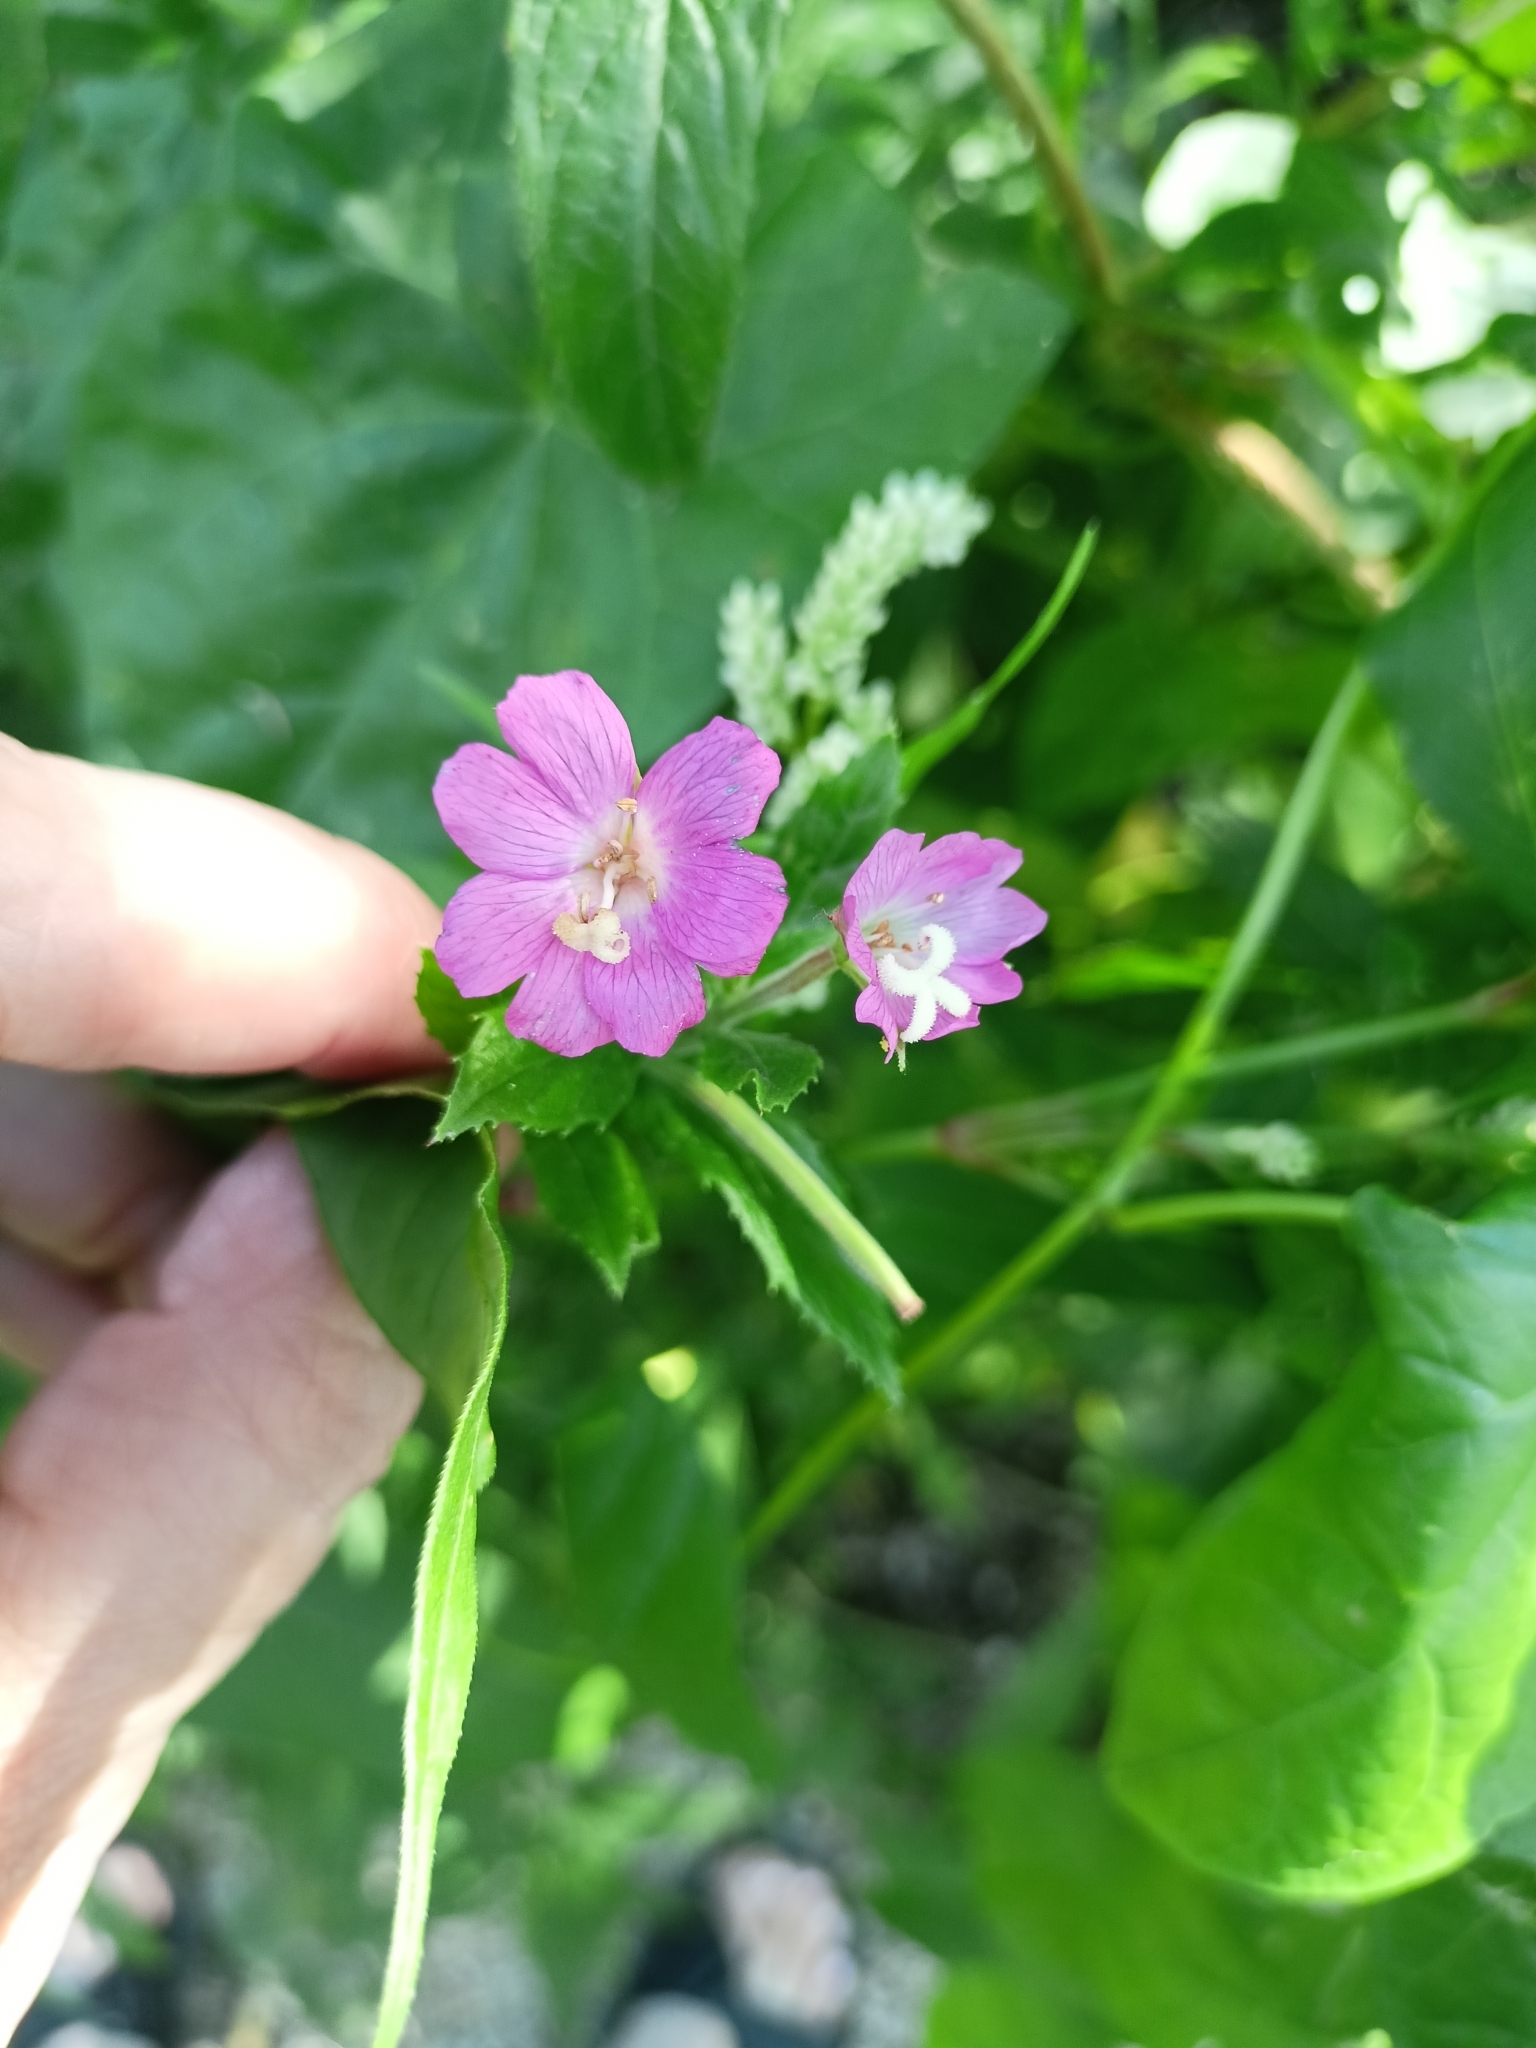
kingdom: Plantae
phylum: Tracheophyta
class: Magnoliopsida
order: Myrtales
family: Onagraceae
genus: Epilobium
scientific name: Epilobium hirsutum
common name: Great willowherb
